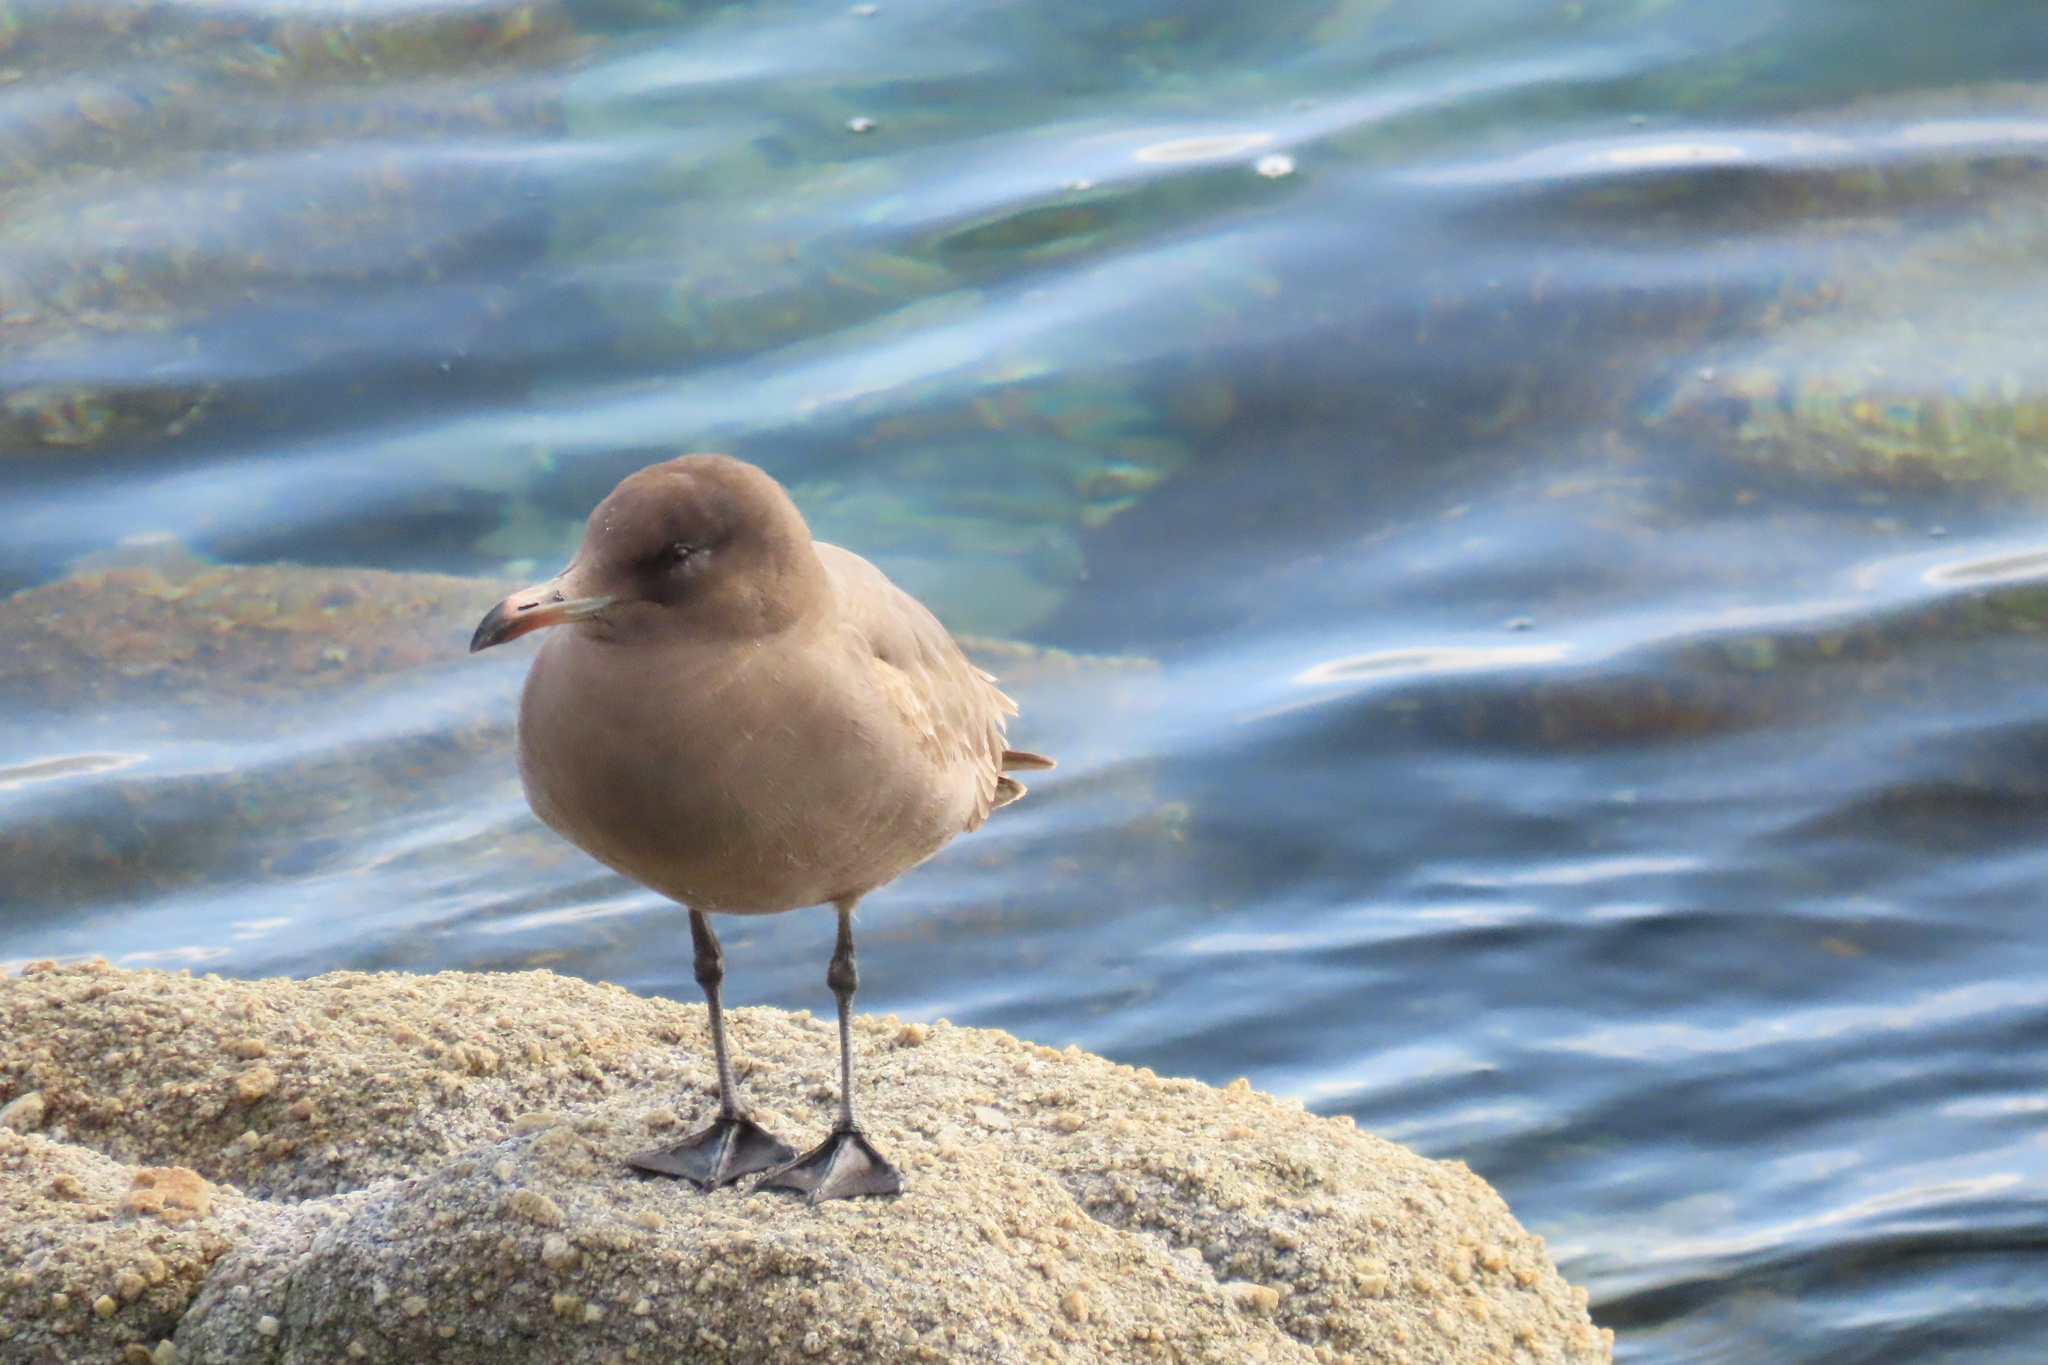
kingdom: Animalia
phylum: Chordata
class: Aves
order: Charadriiformes
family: Laridae
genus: Larus
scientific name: Larus heermanni
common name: Heermann's gull
